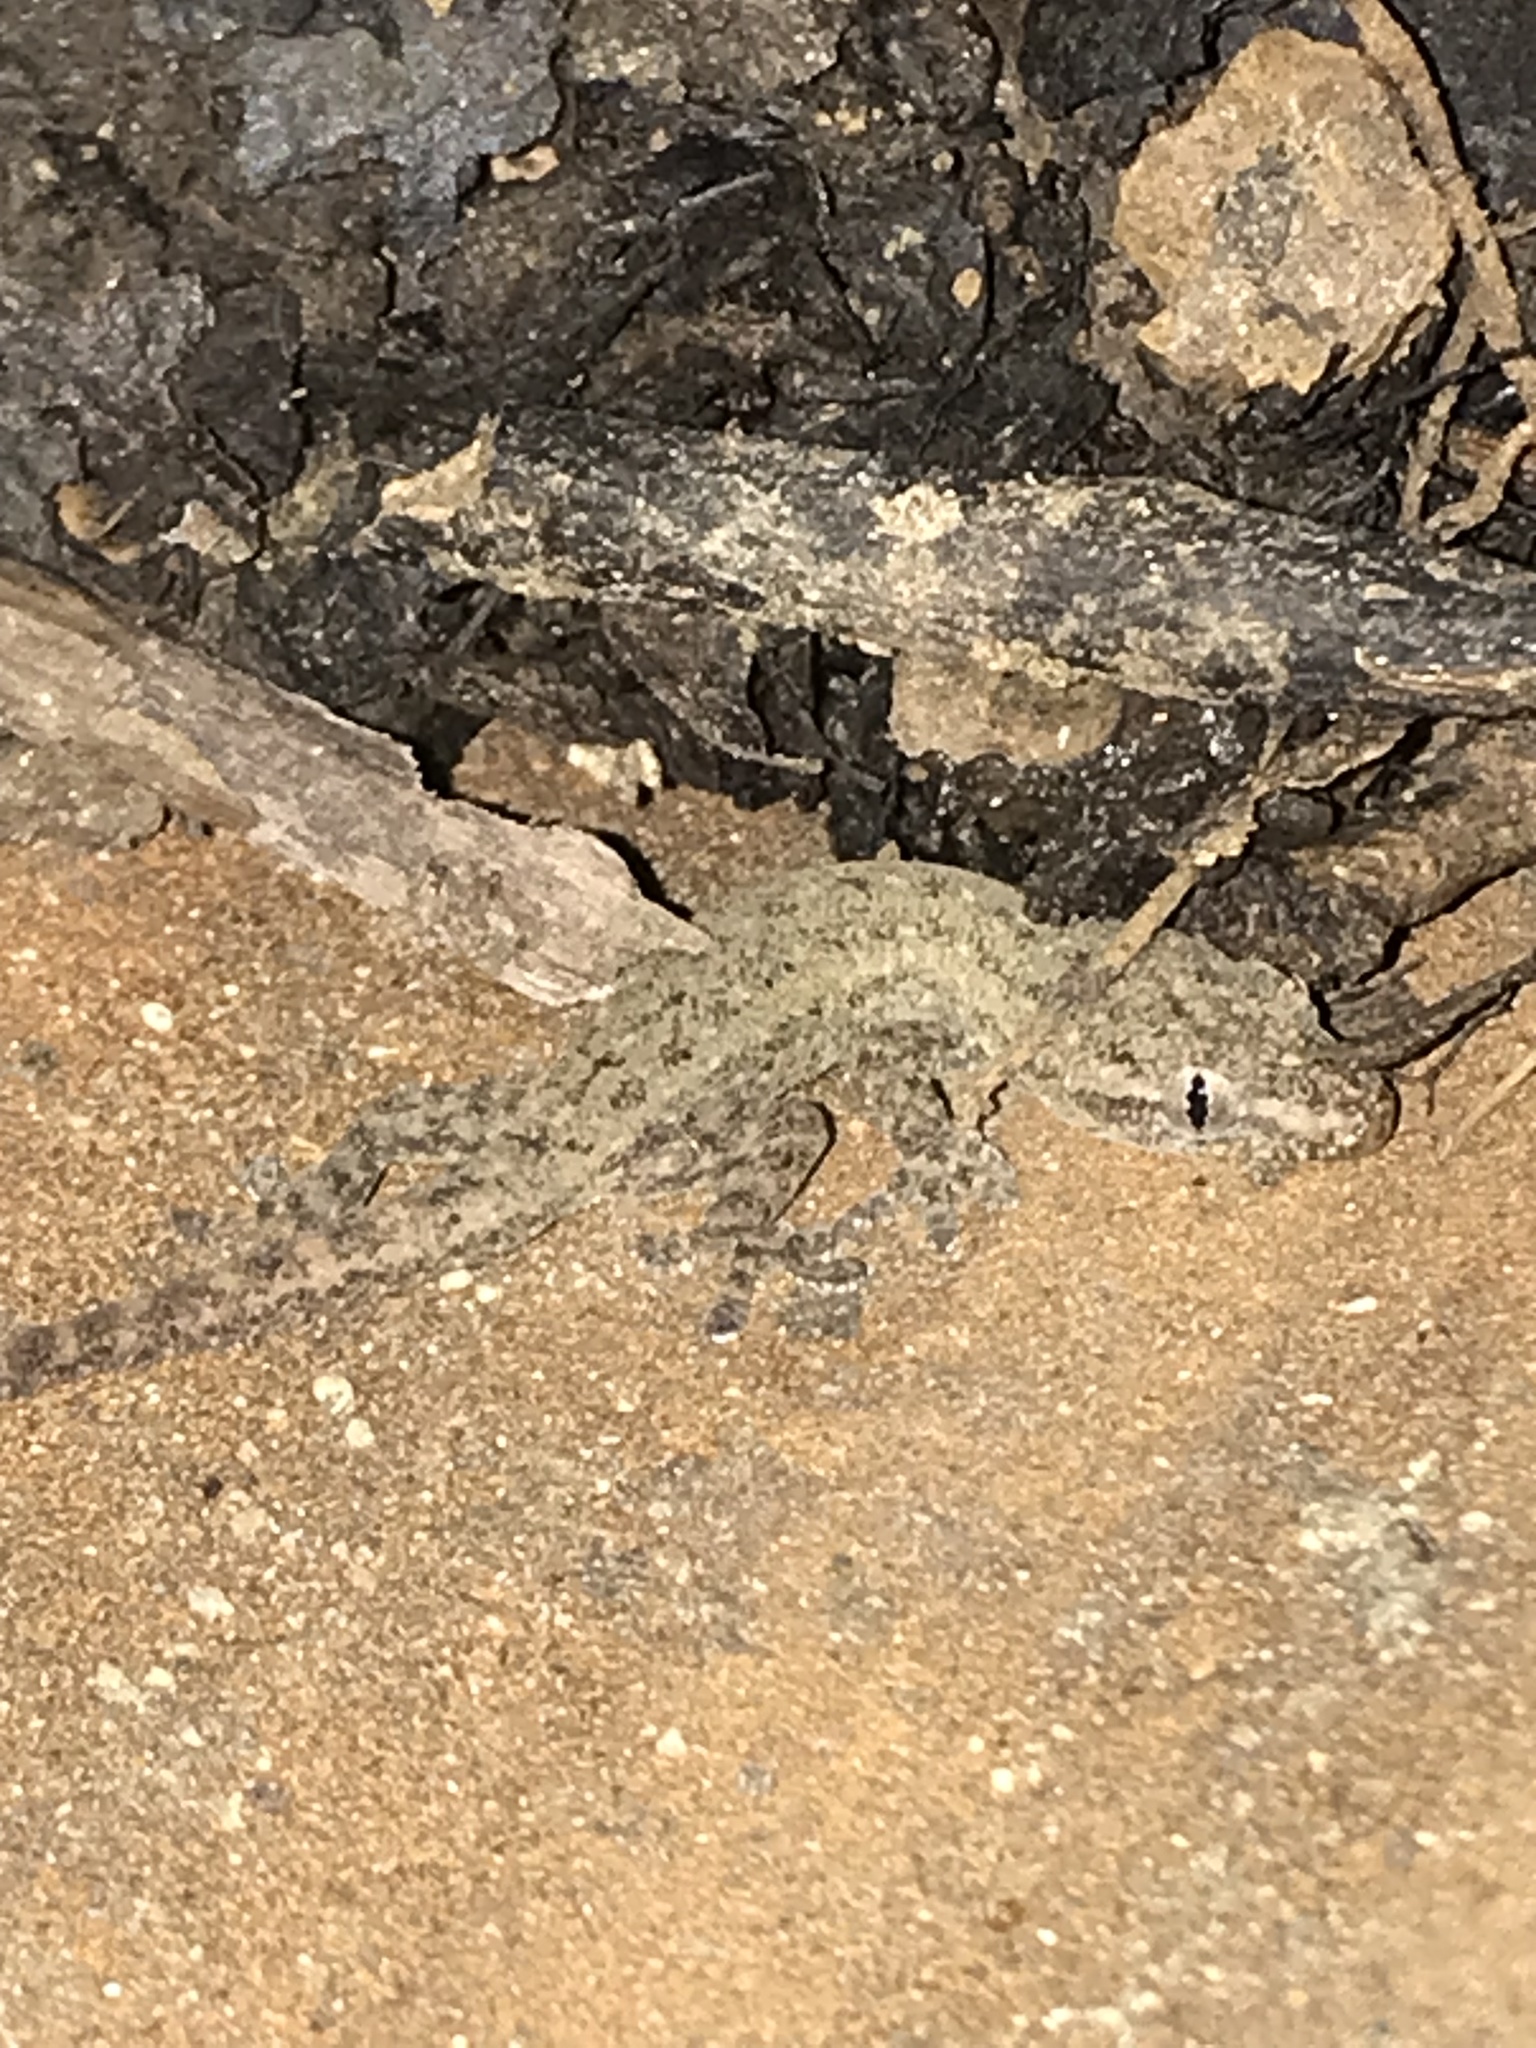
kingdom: Animalia
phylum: Chordata
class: Squamata
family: Gekkonidae
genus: Hemidactylus
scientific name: Hemidactylus frenatus
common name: Common house gecko
